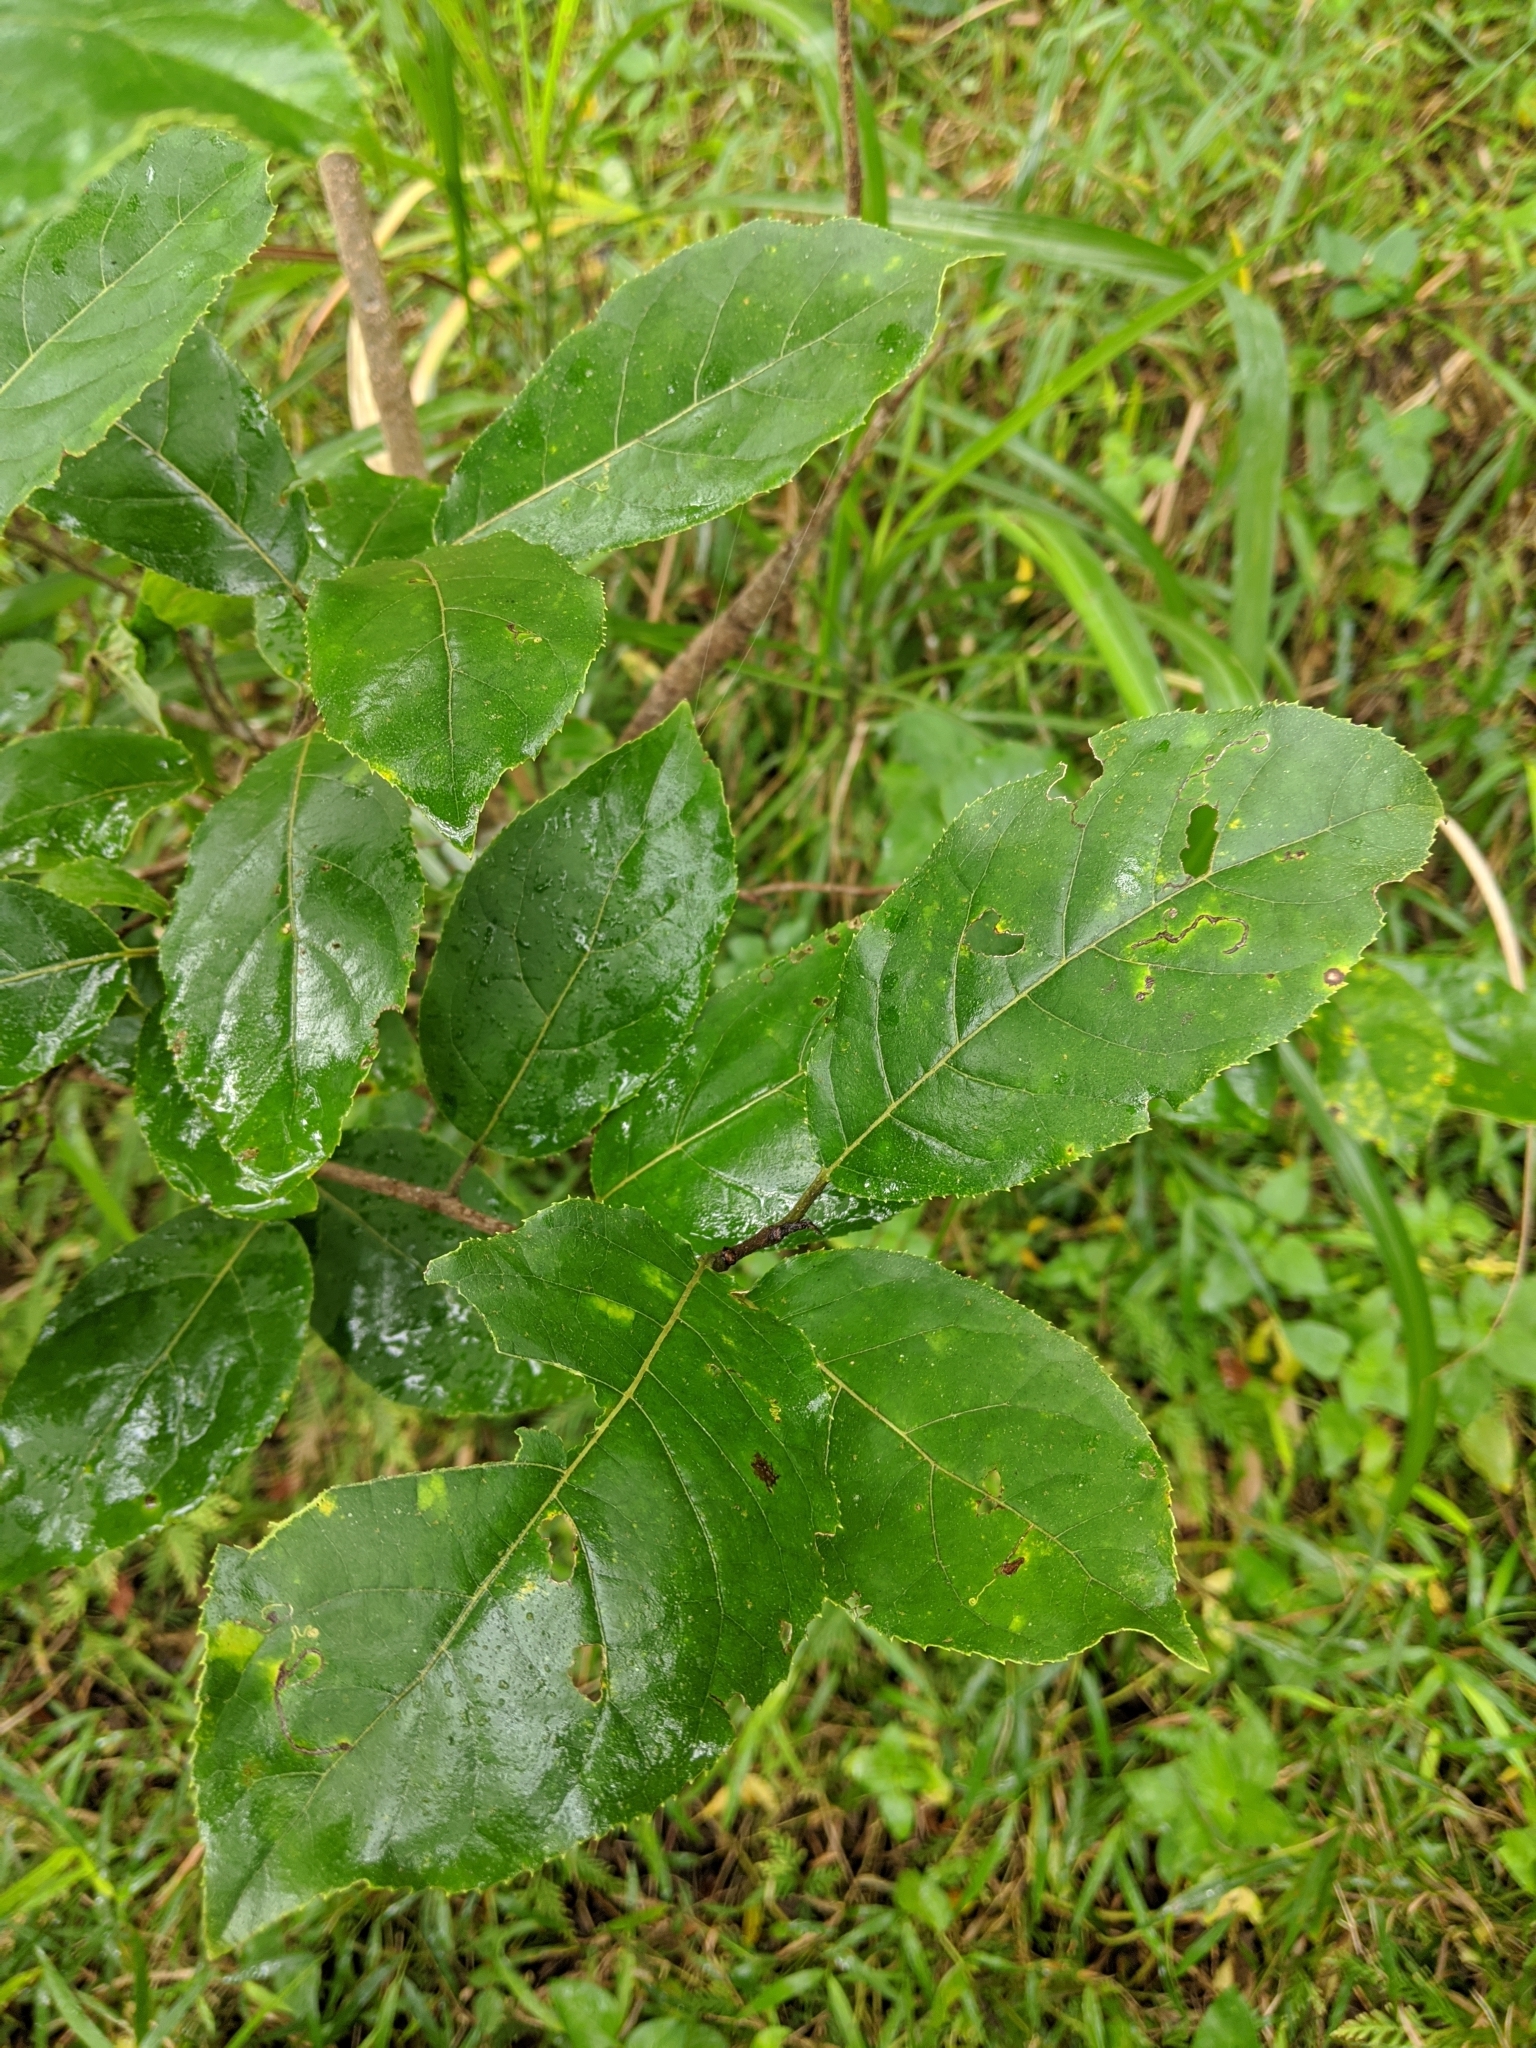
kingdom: Plantae
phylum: Tracheophyta
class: Magnoliopsida
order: Boraginales
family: Ehretiaceae
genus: Ehretia
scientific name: Ehretia acuminata
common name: Kodo wood
